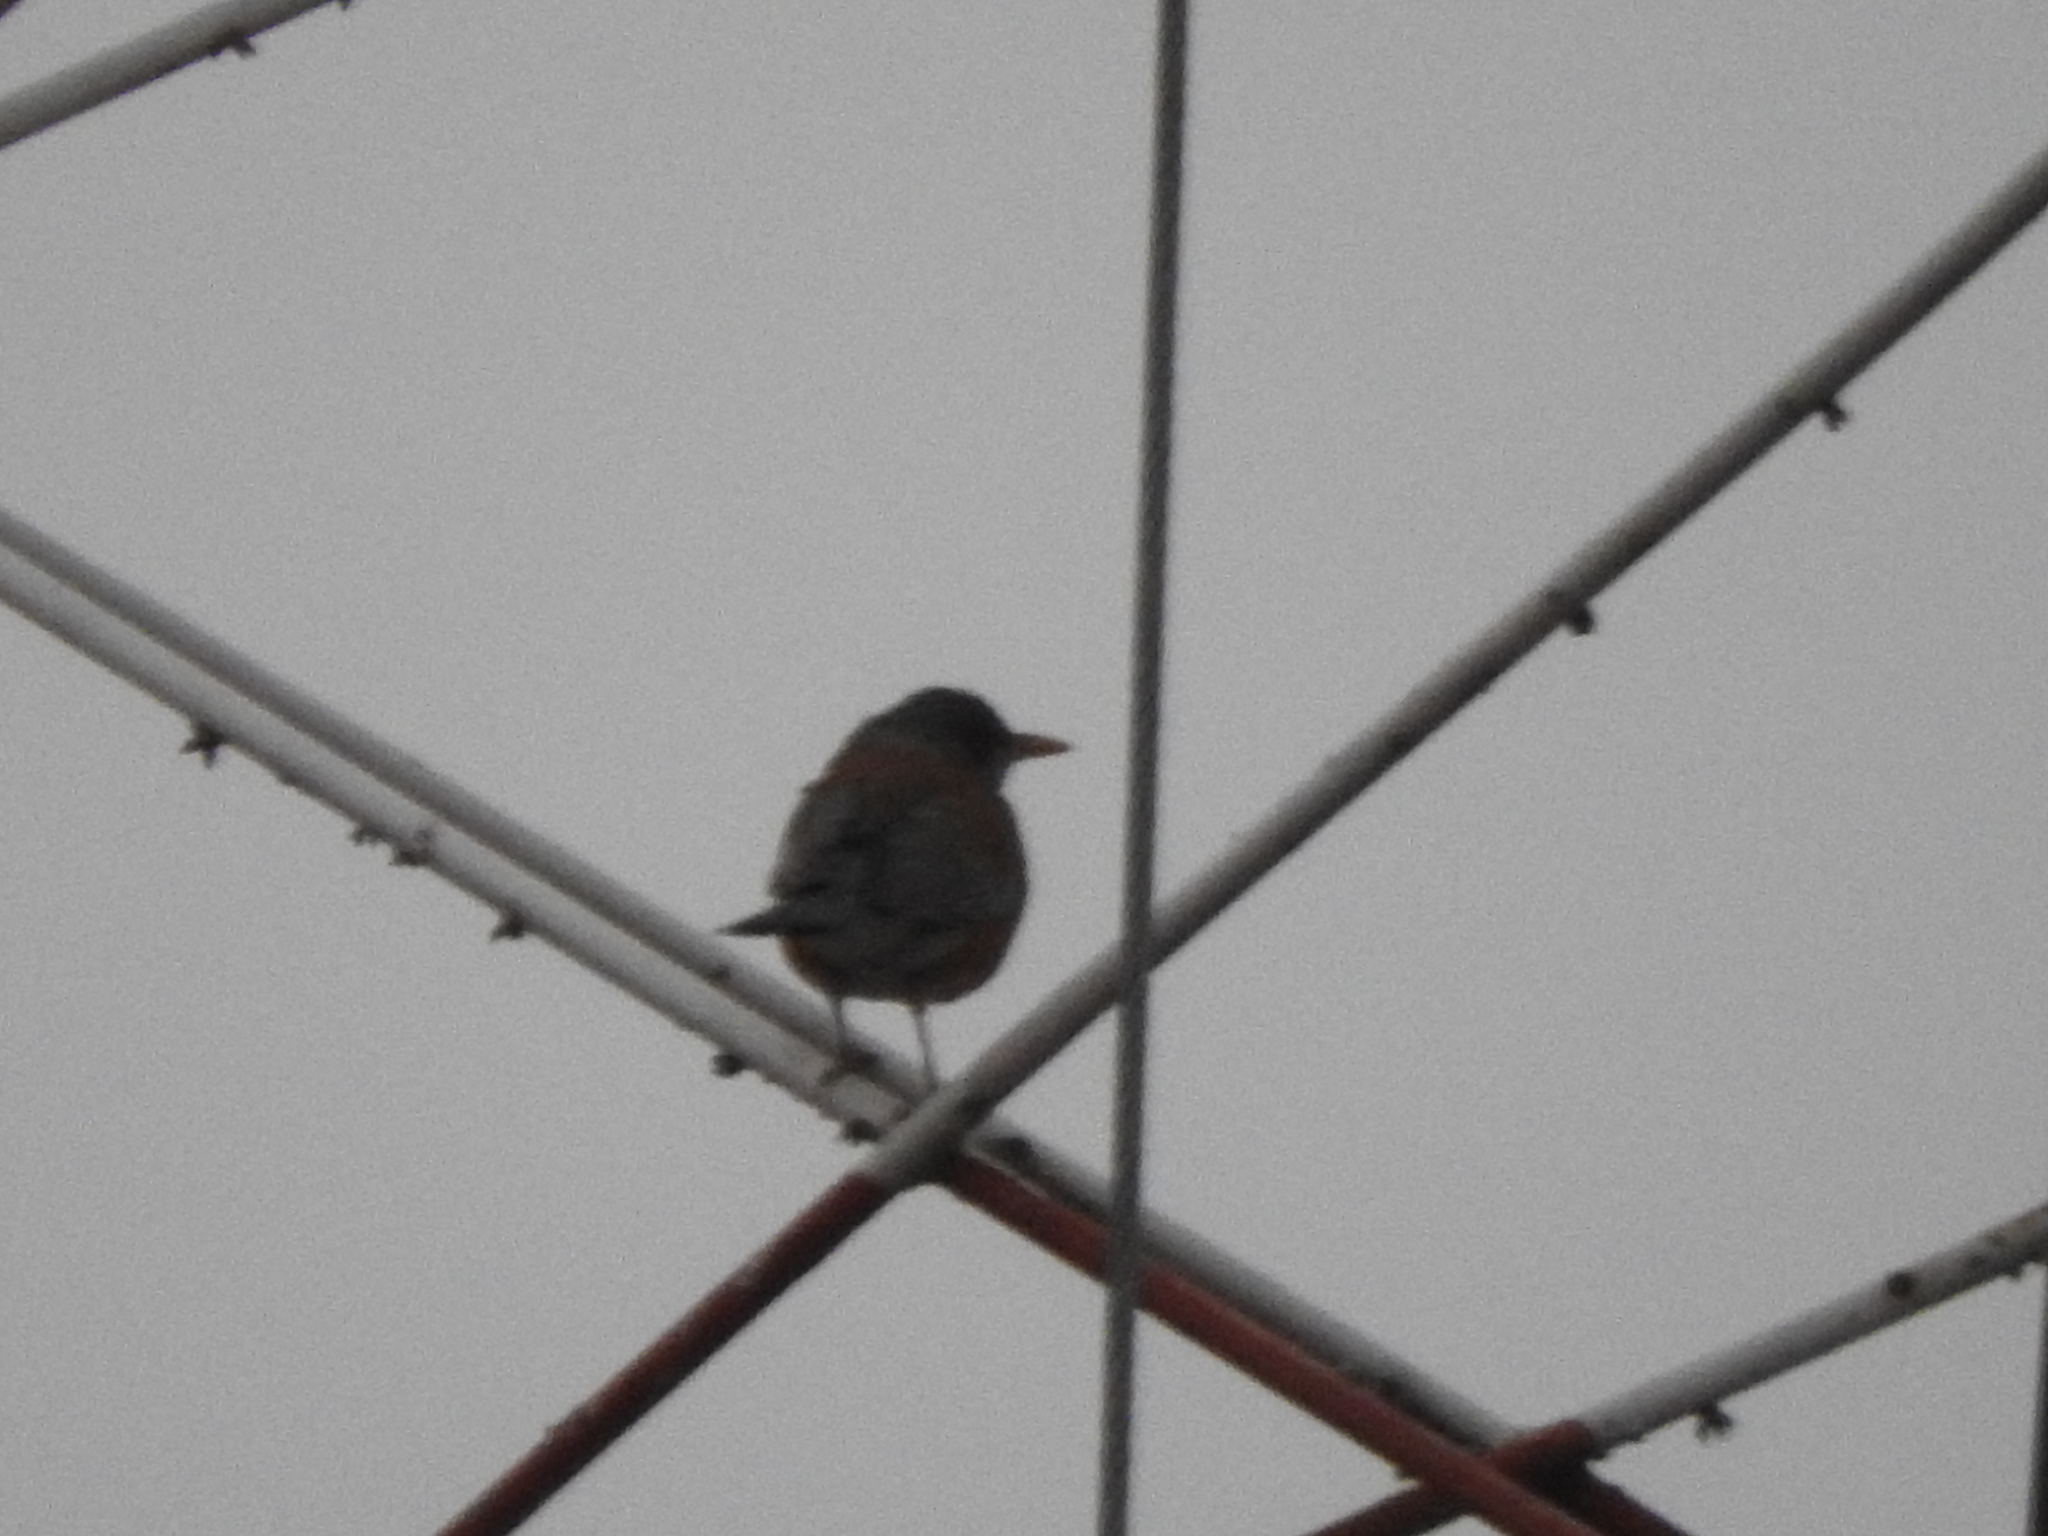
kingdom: Animalia
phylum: Chordata
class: Aves
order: Passeriformes
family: Turdidae
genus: Turdus
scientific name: Turdus rufopalliatus
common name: Rufous-backed robin
